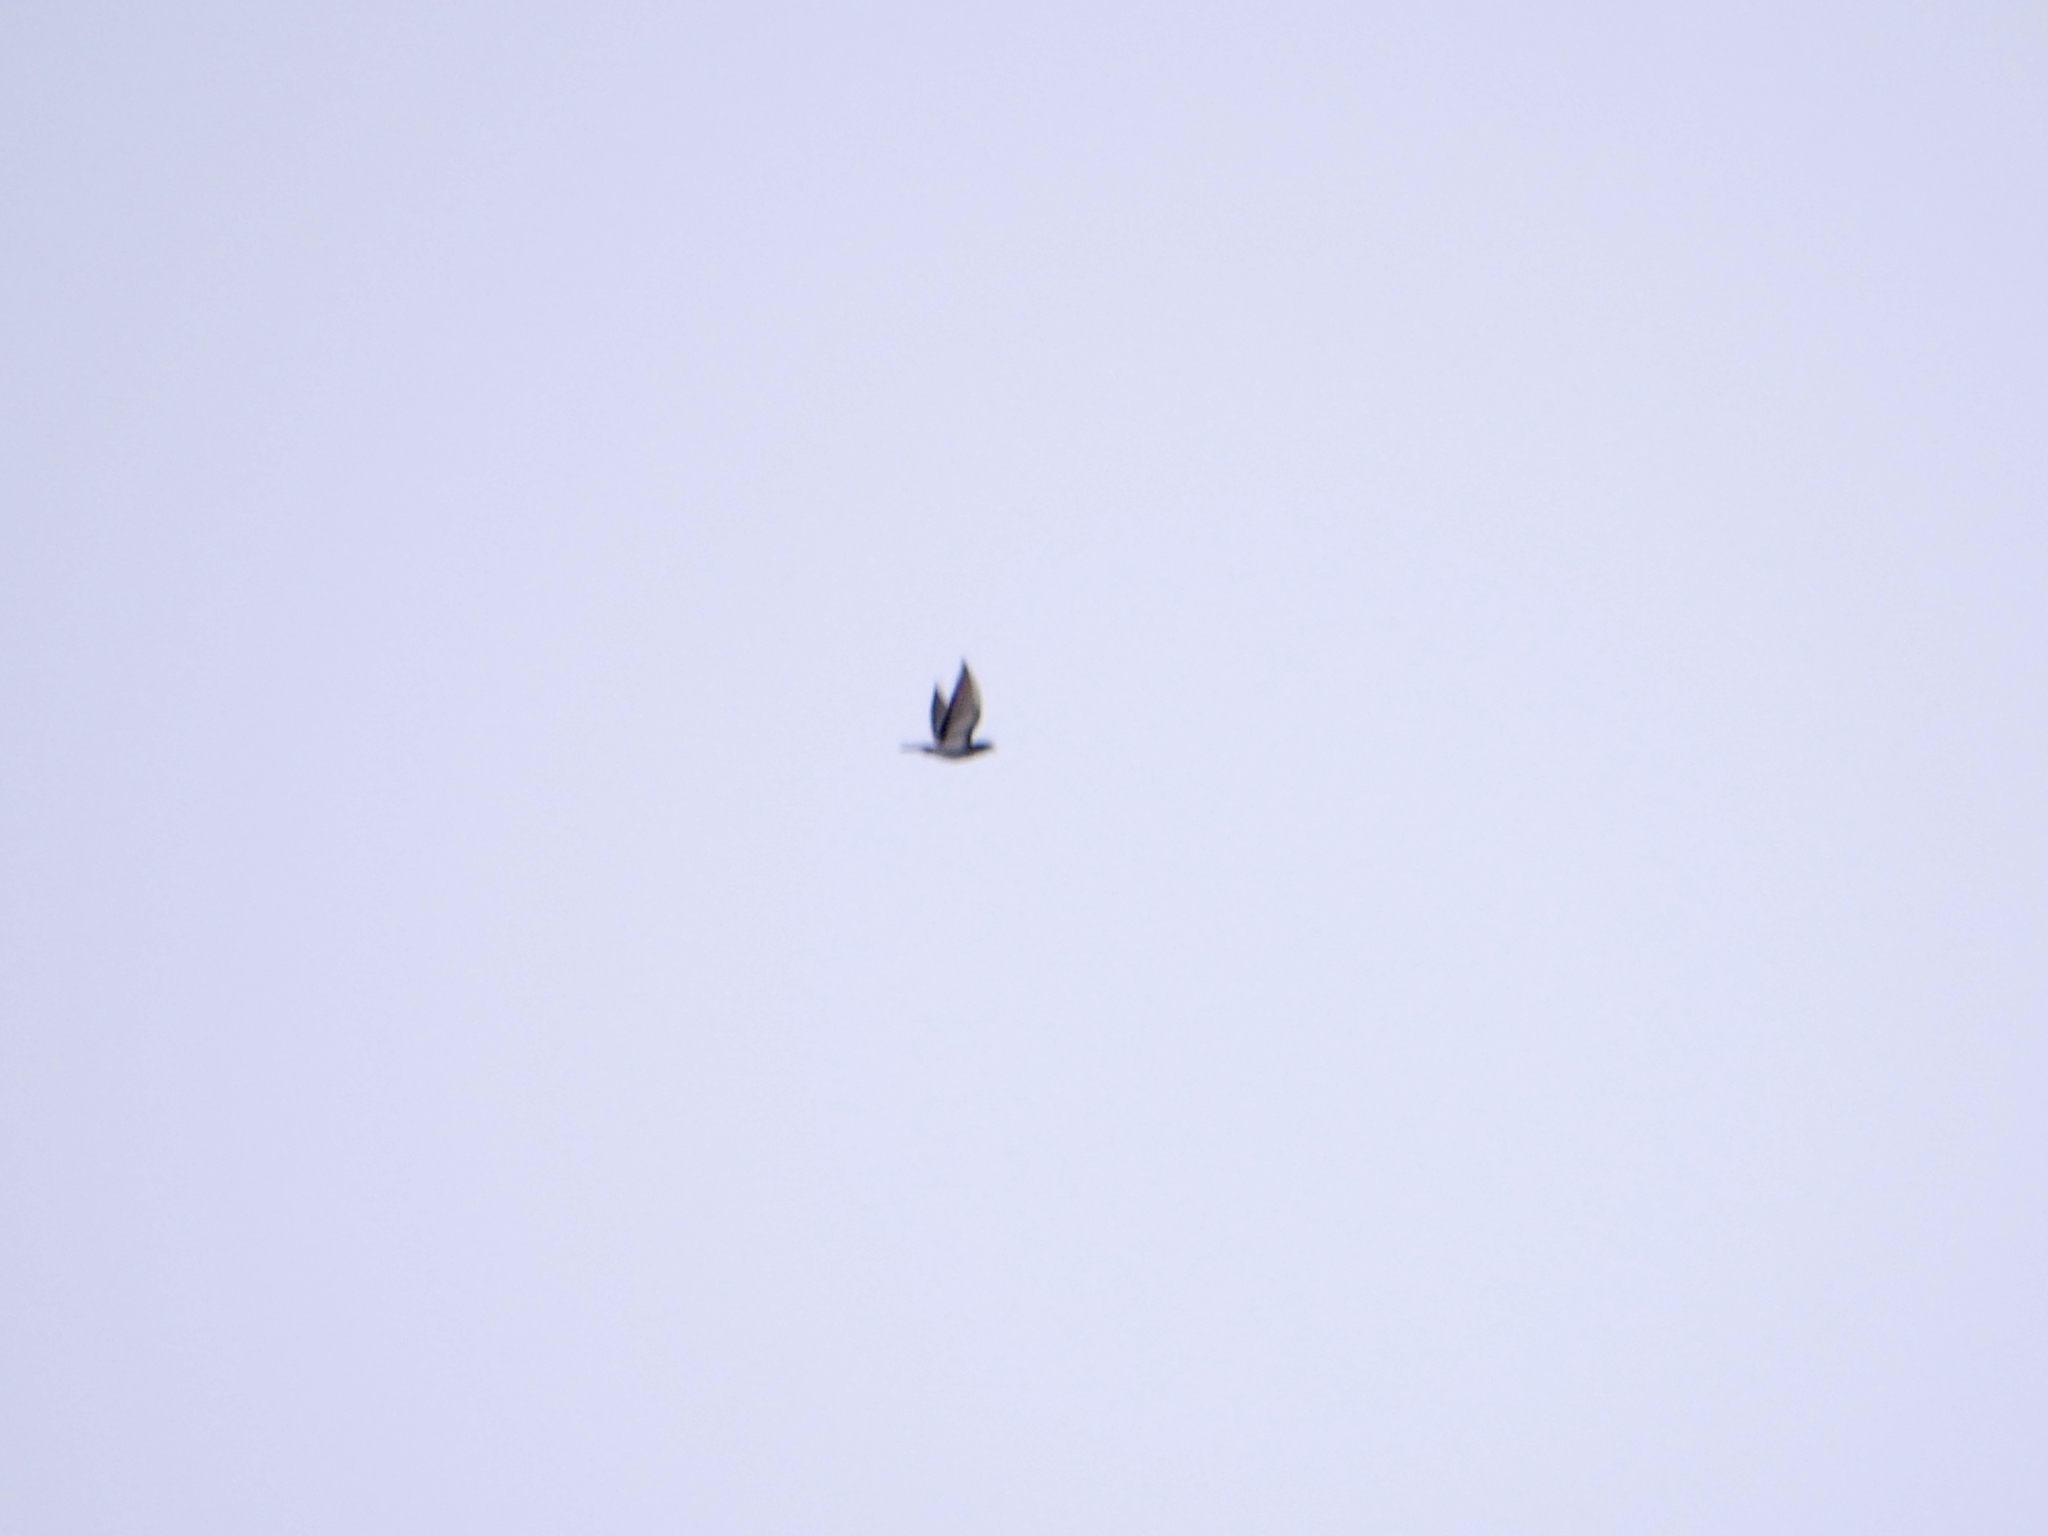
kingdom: Animalia
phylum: Chordata
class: Aves
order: Columbiformes
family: Columbidae
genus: Columba
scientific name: Columba livia
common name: Rock pigeon
